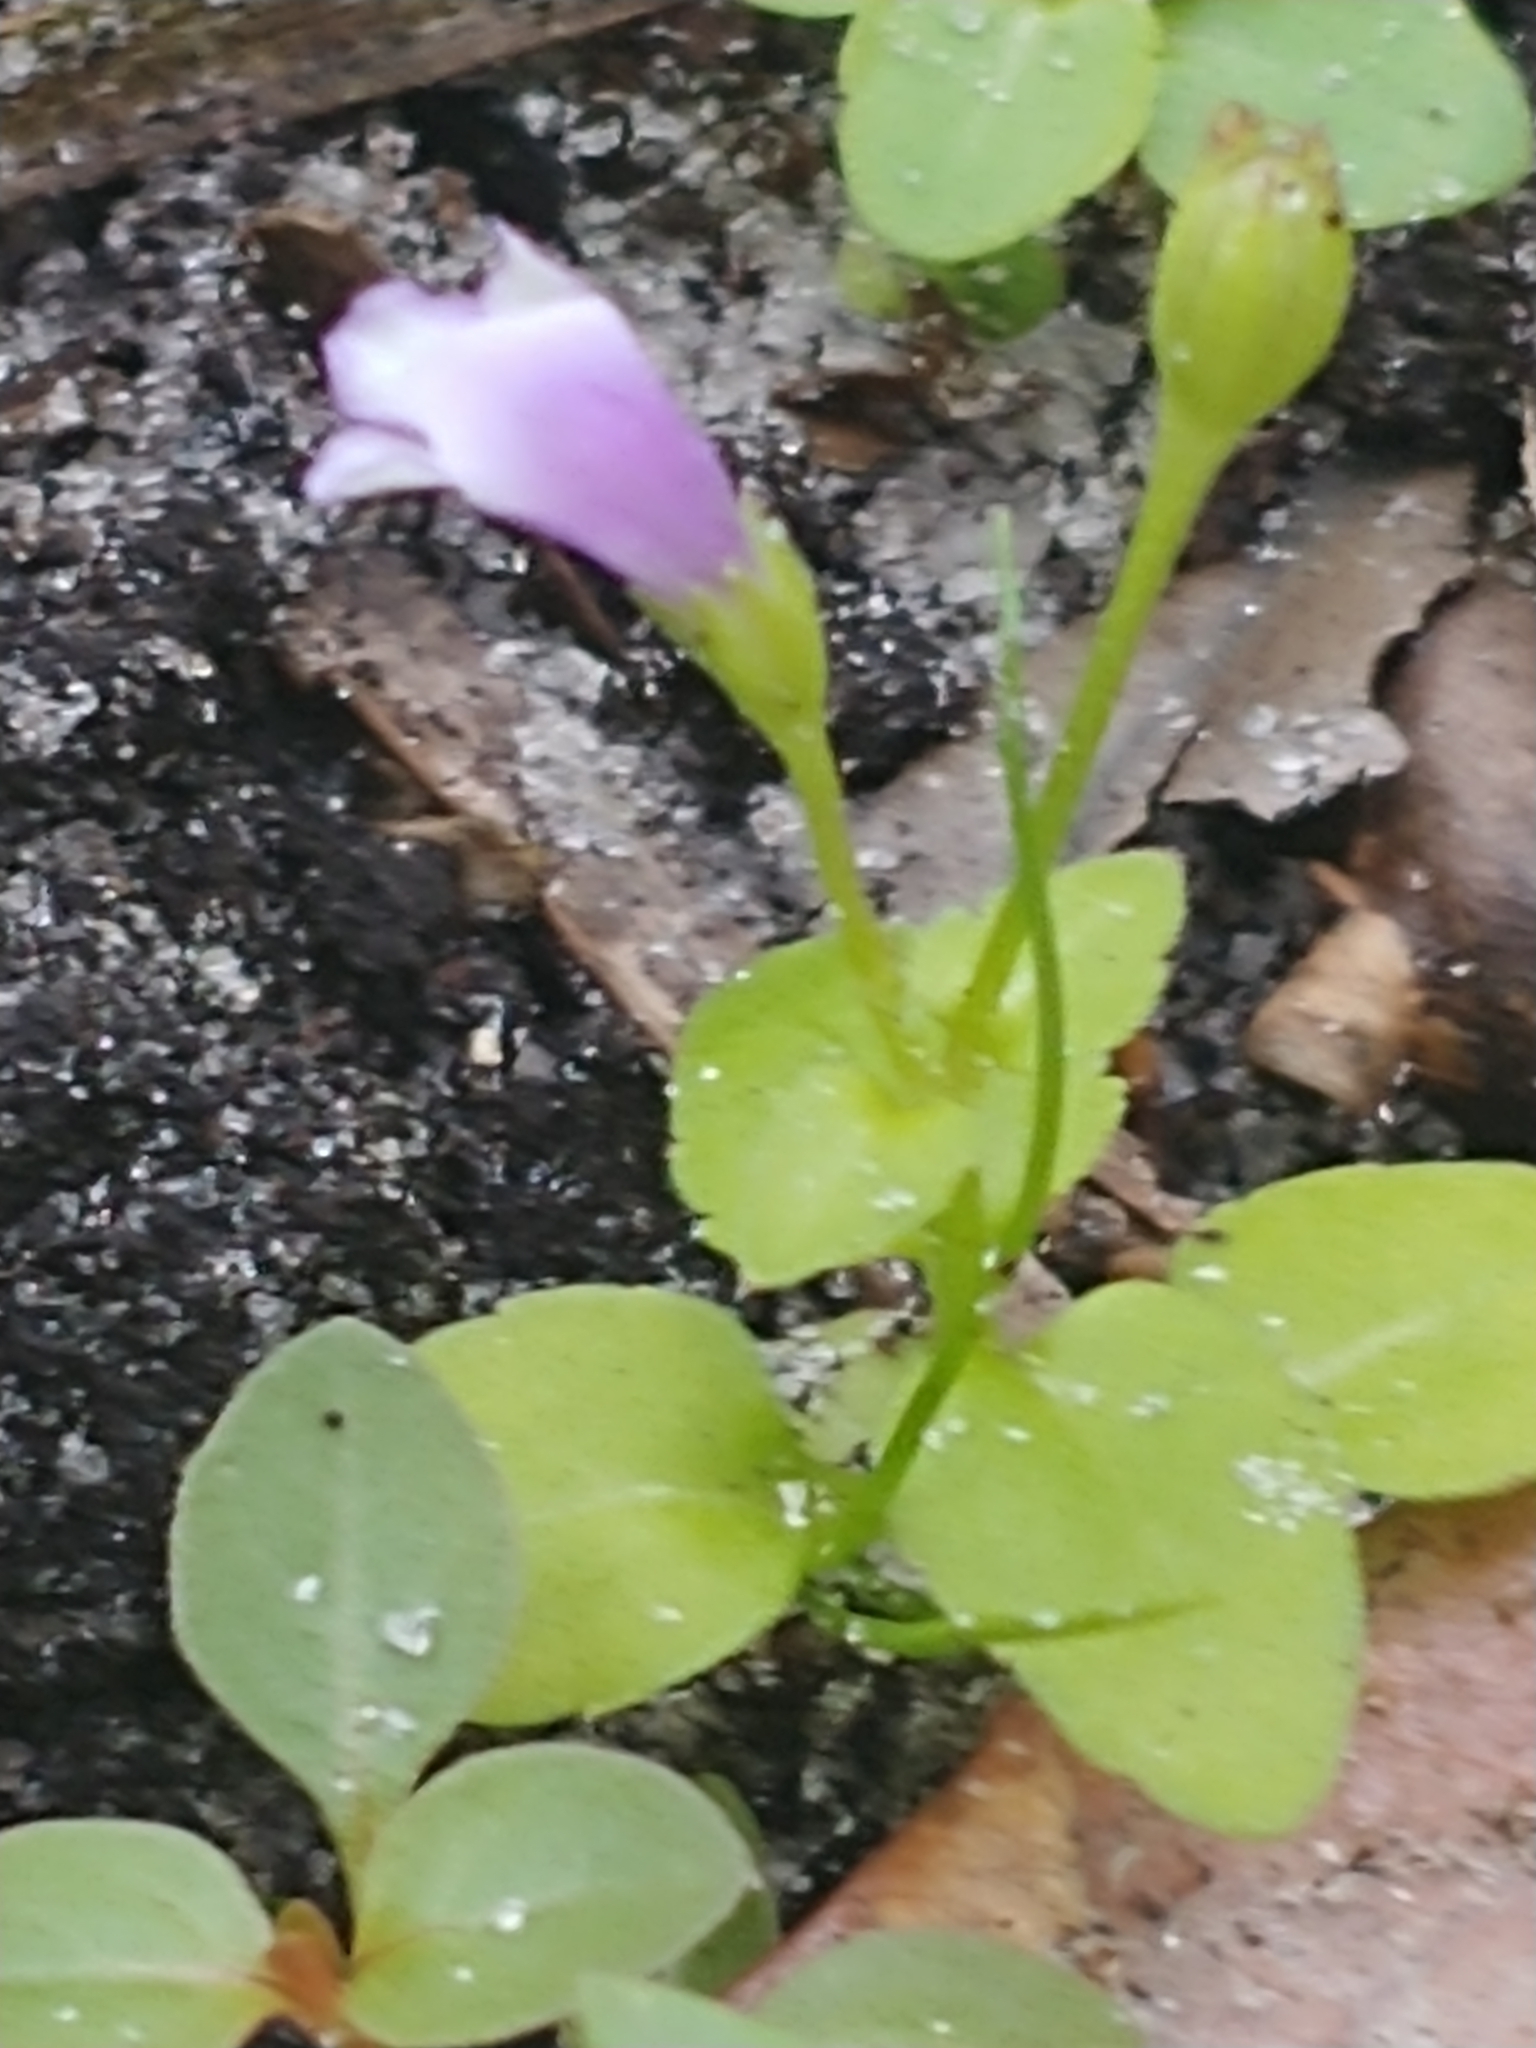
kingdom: Plantae
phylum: Tracheophyta
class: Magnoliopsida
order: Lamiales
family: Linderniaceae
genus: Torenia
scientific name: Torenia crustacea
